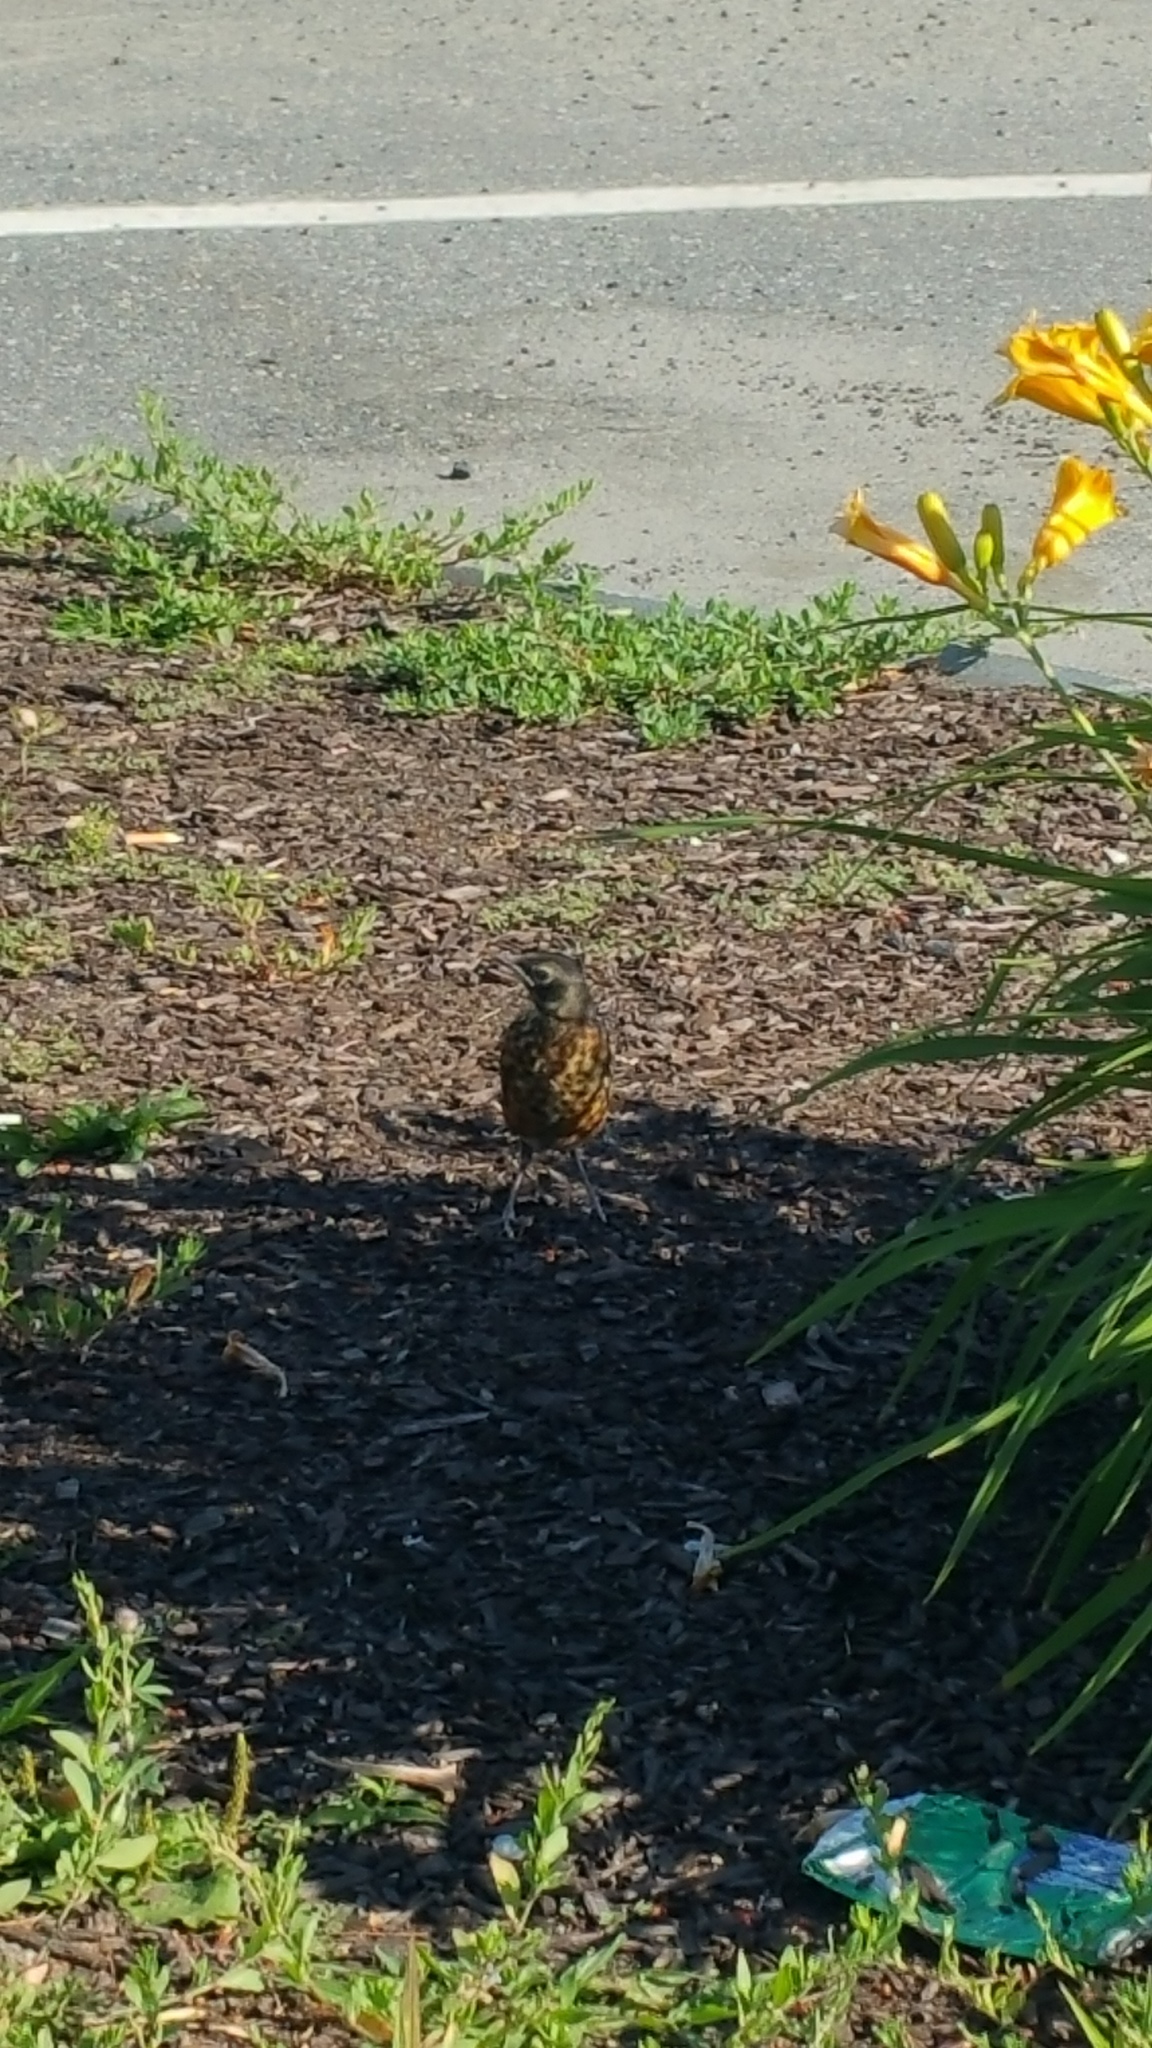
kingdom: Animalia
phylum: Chordata
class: Aves
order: Passeriformes
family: Turdidae
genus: Turdus
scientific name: Turdus migratorius
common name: American robin
